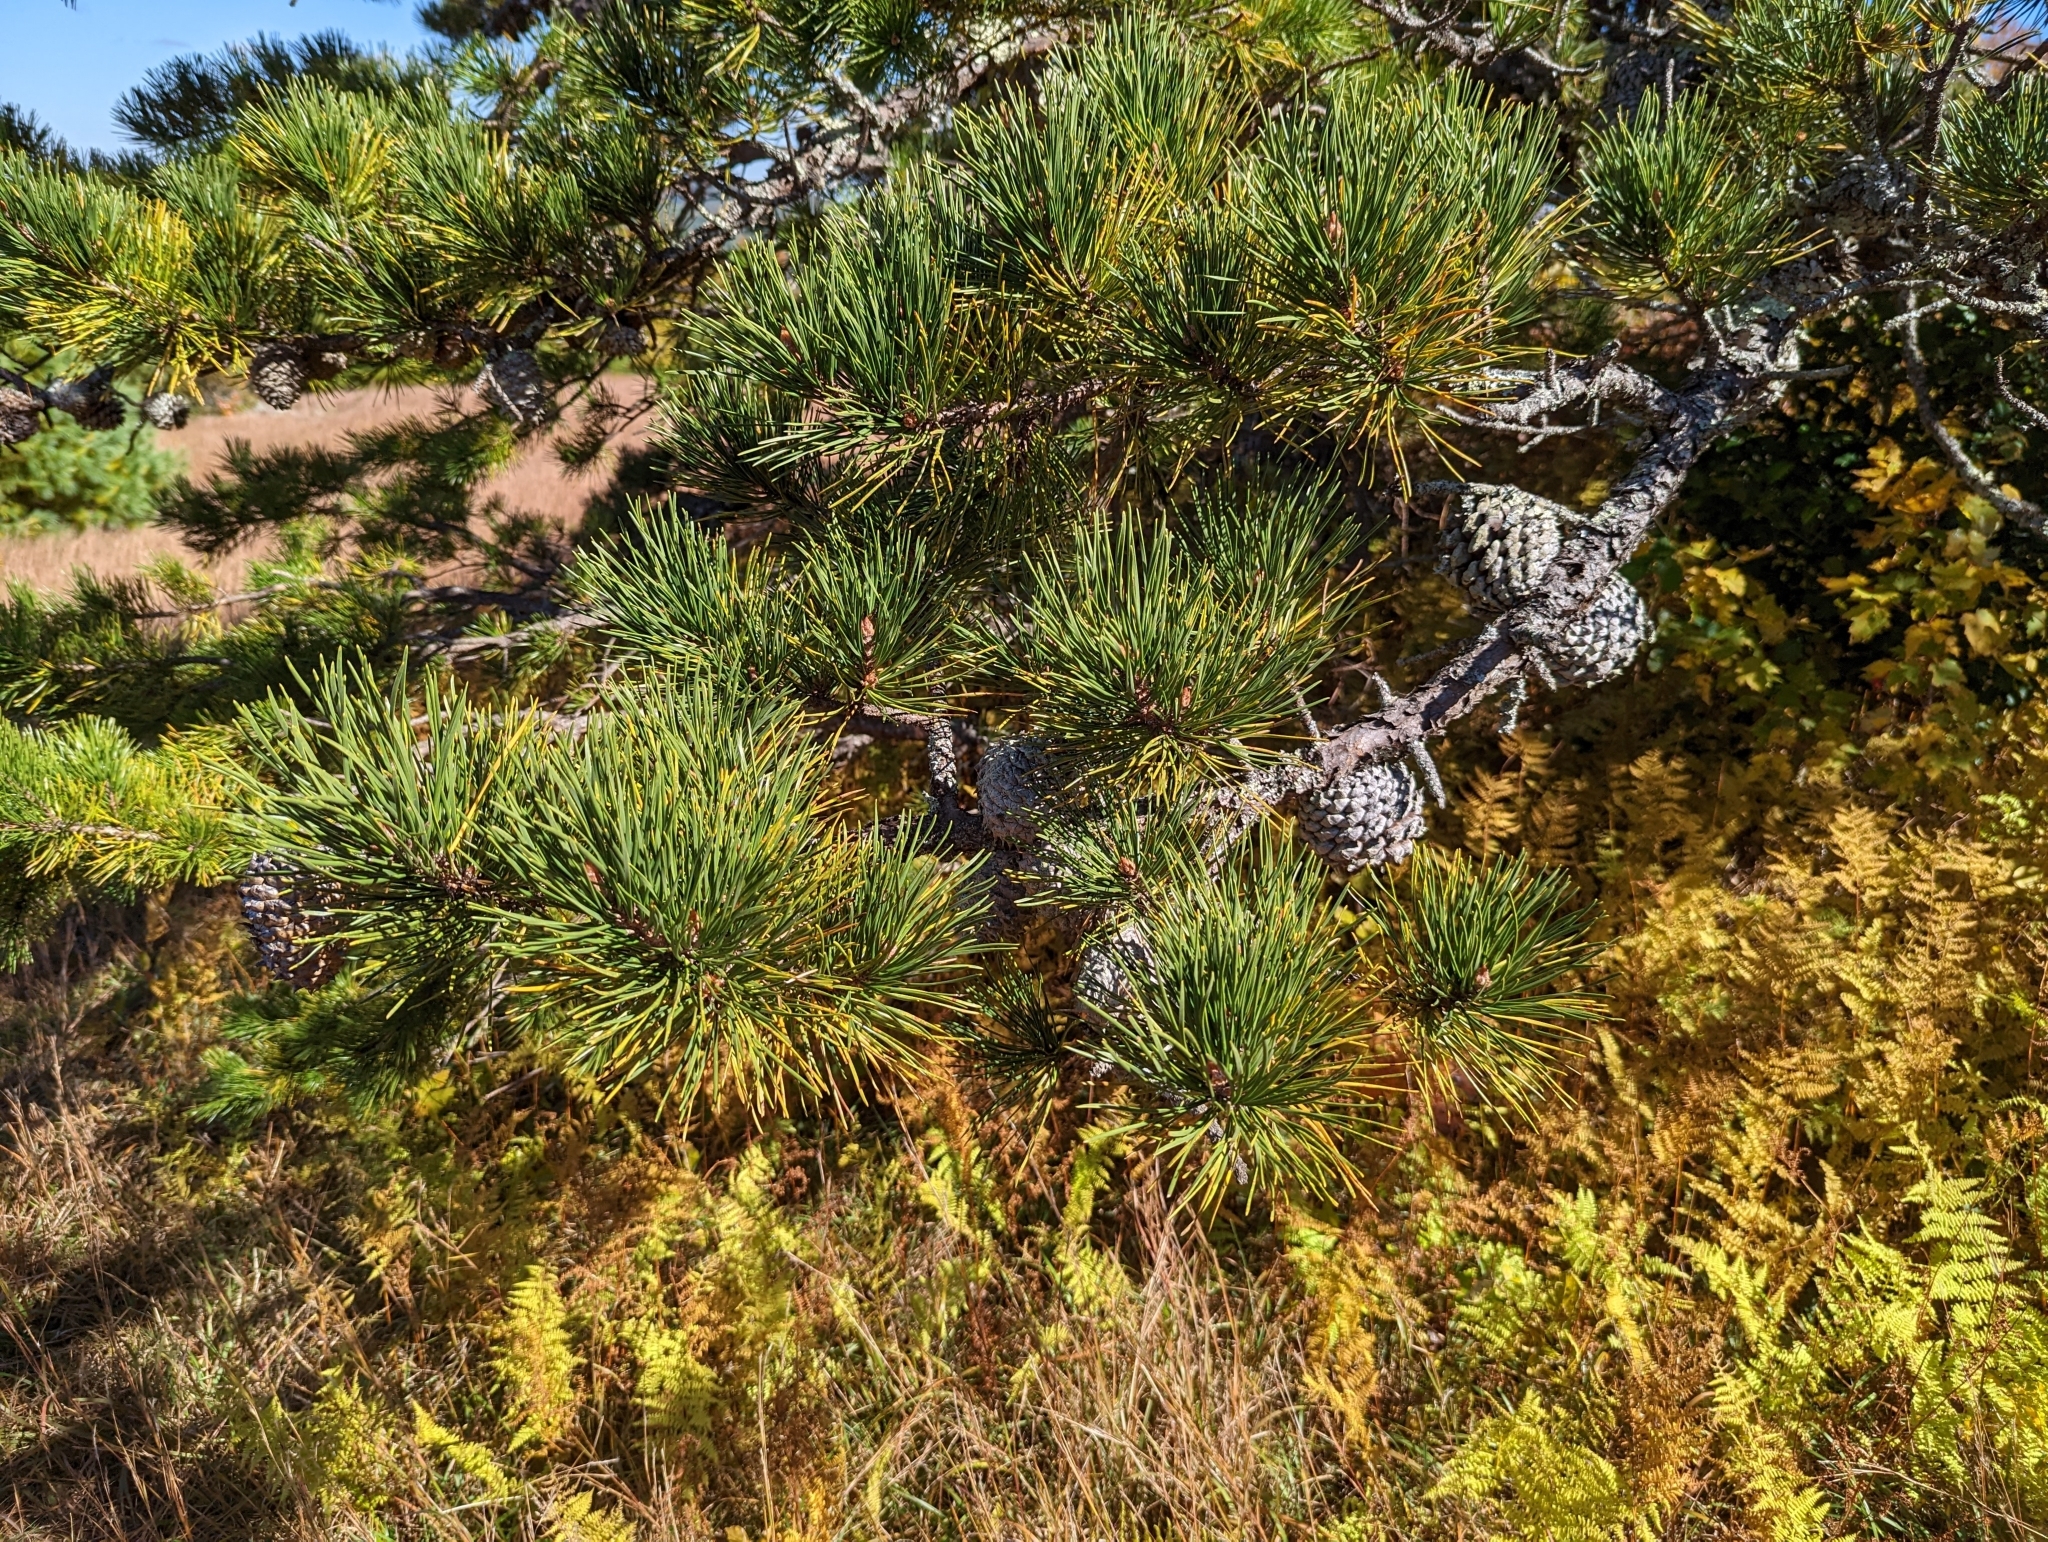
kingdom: Plantae
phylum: Tracheophyta
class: Pinopsida
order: Pinales
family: Pinaceae
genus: Pinus
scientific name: Pinus pungens
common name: Hickory pine
